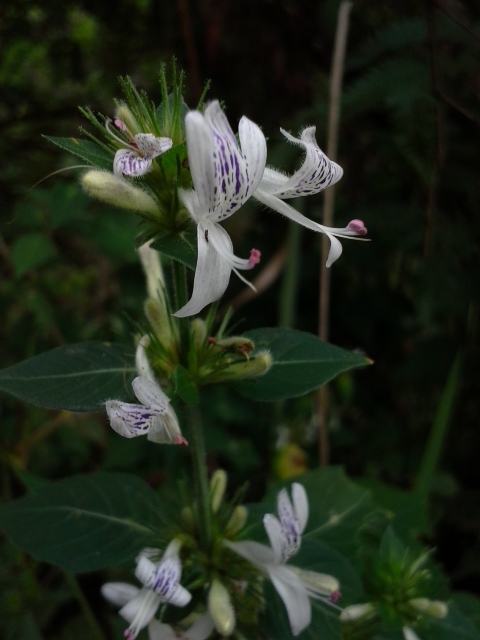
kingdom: Plantae
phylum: Tracheophyta
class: Magnoliopsida
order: Lamiales
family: Acanthaceae
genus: Hypoestes
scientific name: Hypoestes aristata
